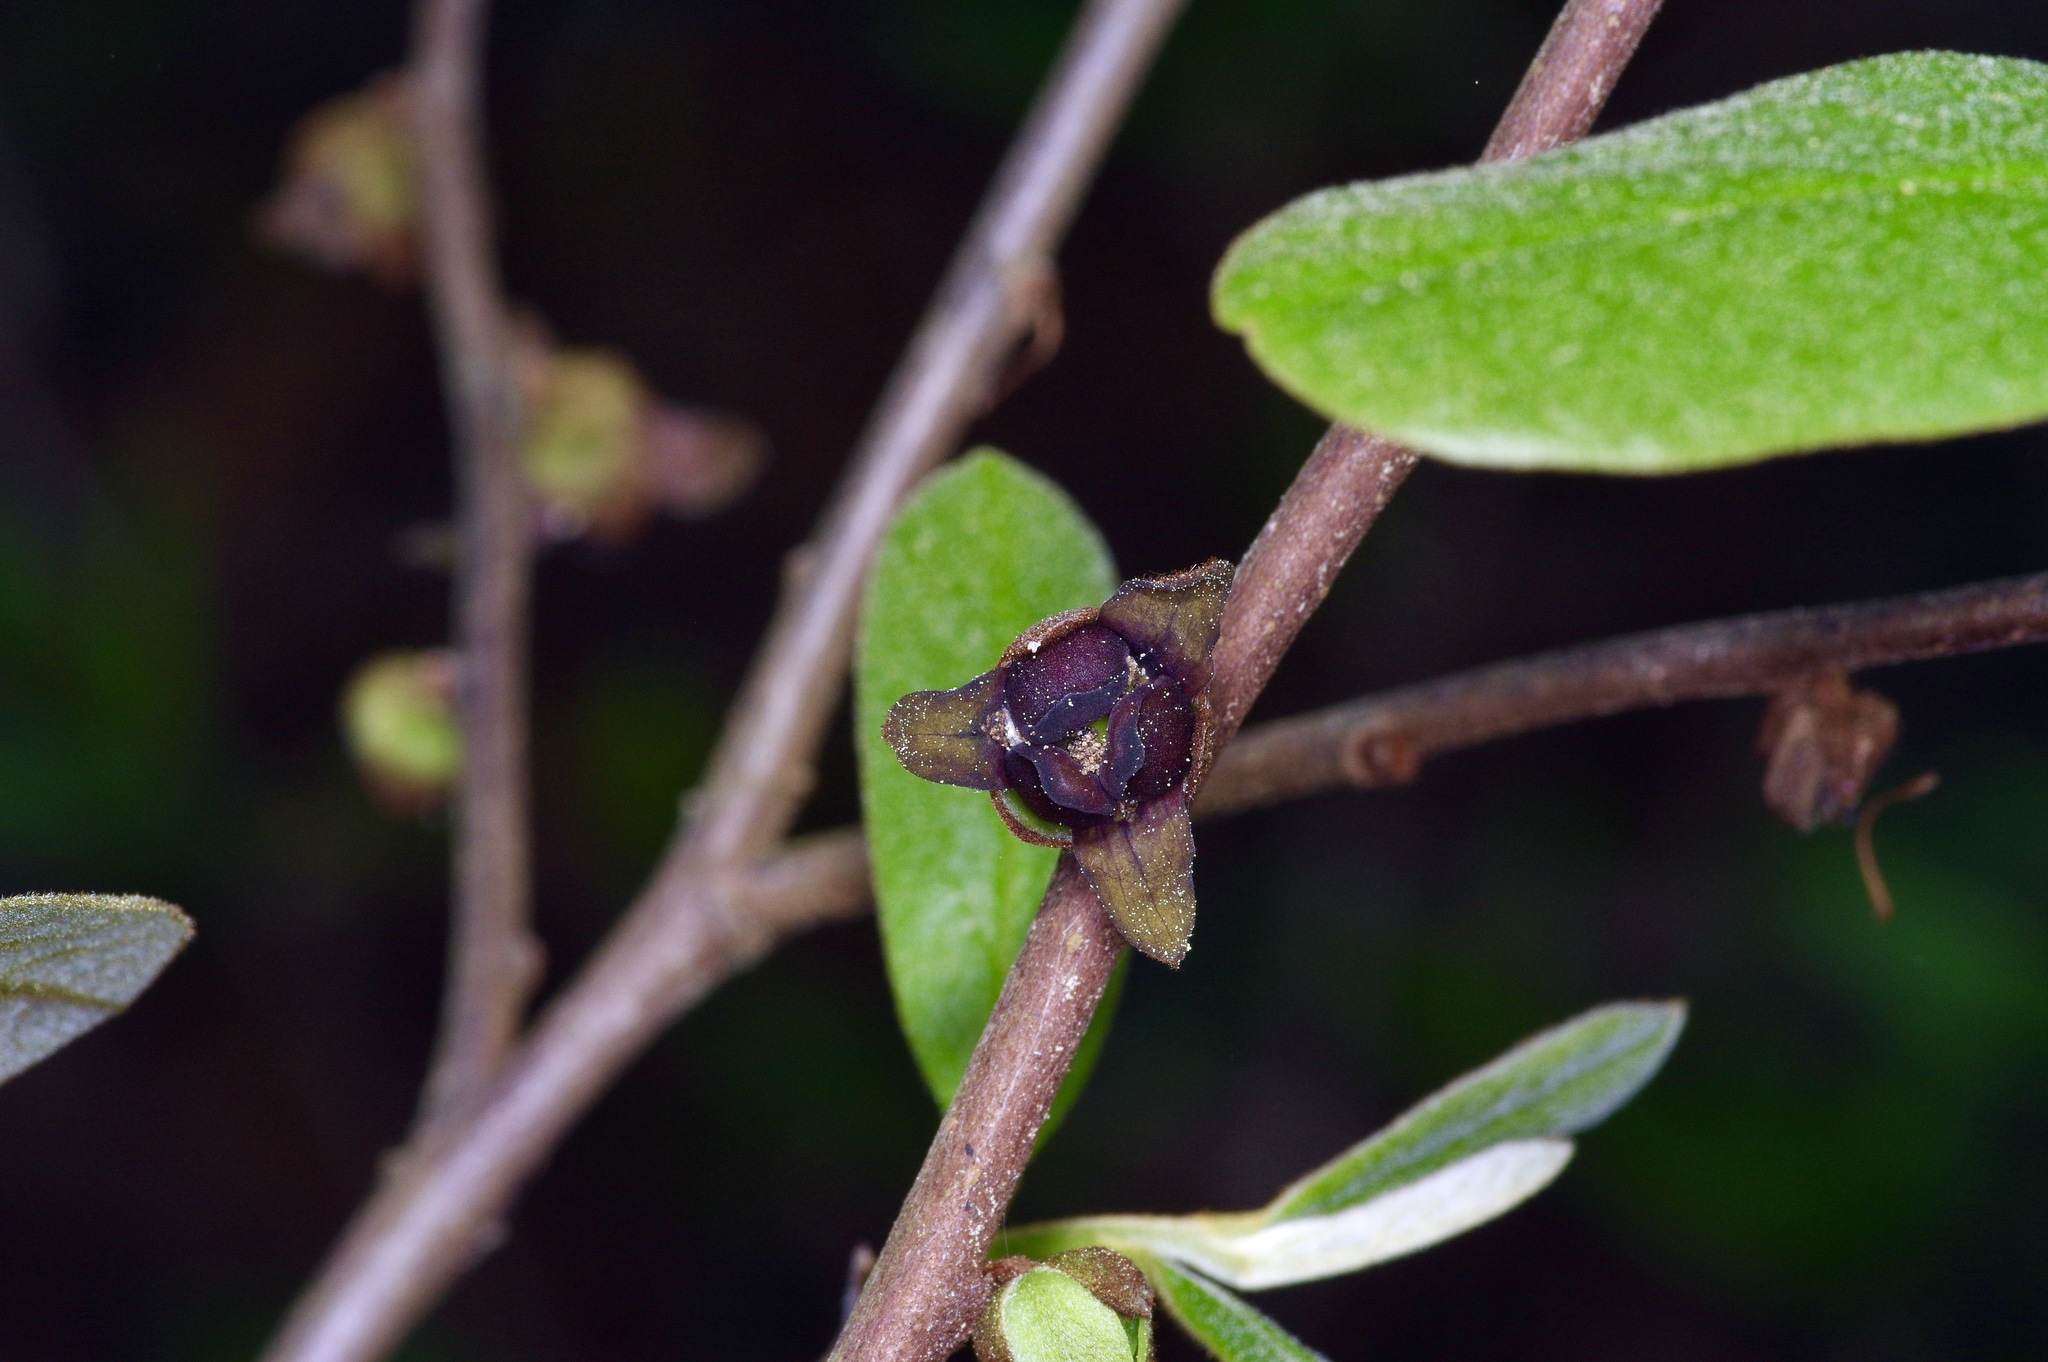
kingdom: Plantae
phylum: Tracheophyta
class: Magnoliopsida
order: Magnoliales
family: Annonaceae
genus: Asimina
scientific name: Asimina parviflora
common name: Dwarf pawpaw
